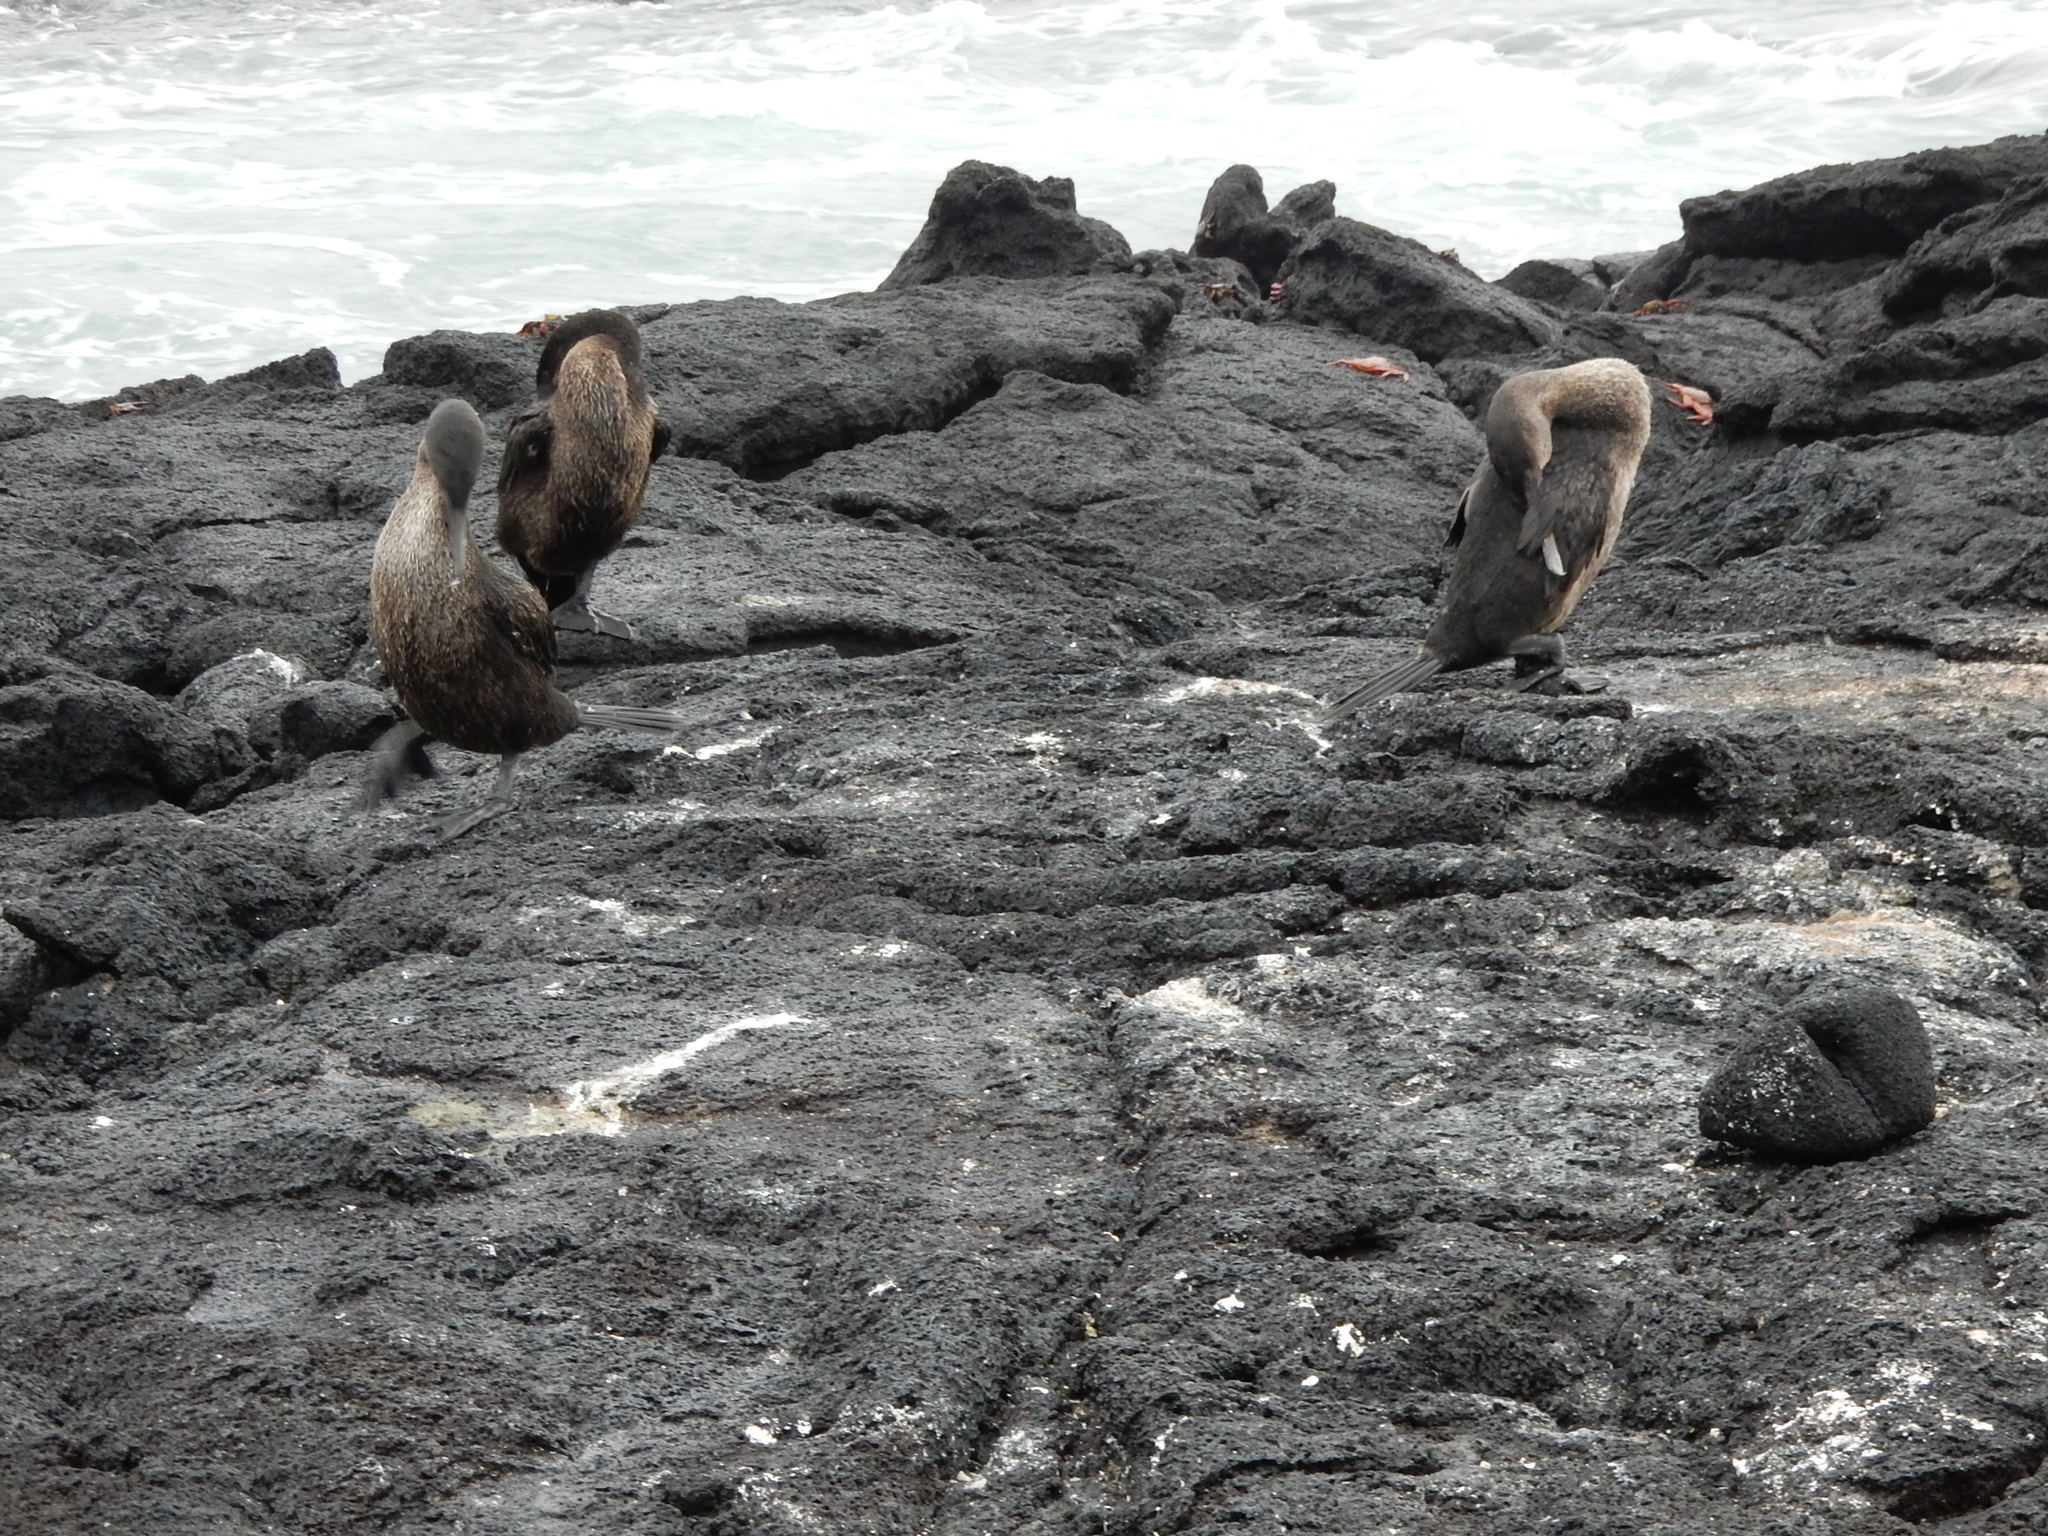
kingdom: Animalia
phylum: Chordata
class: Aves
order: Suliformes
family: Phalacrocoracidae
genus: Phalacrocorax
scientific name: Phalacrocorax harrisi
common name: Flightless cormorant
